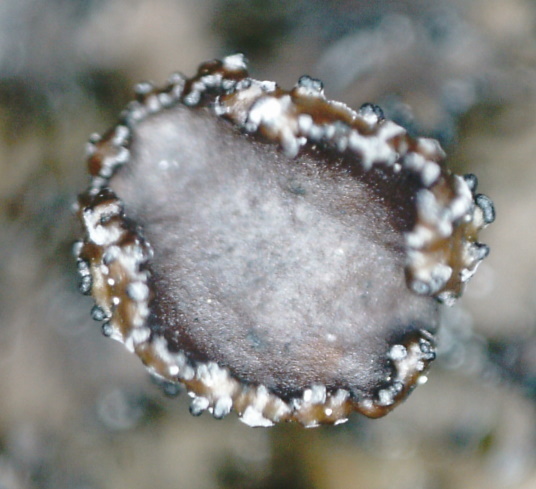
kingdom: Fungi
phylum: Ascomycota
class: Lecanoromycetes
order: Lecanorales
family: Parmeliaceae
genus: Melanelia
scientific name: Melanelia commixta
